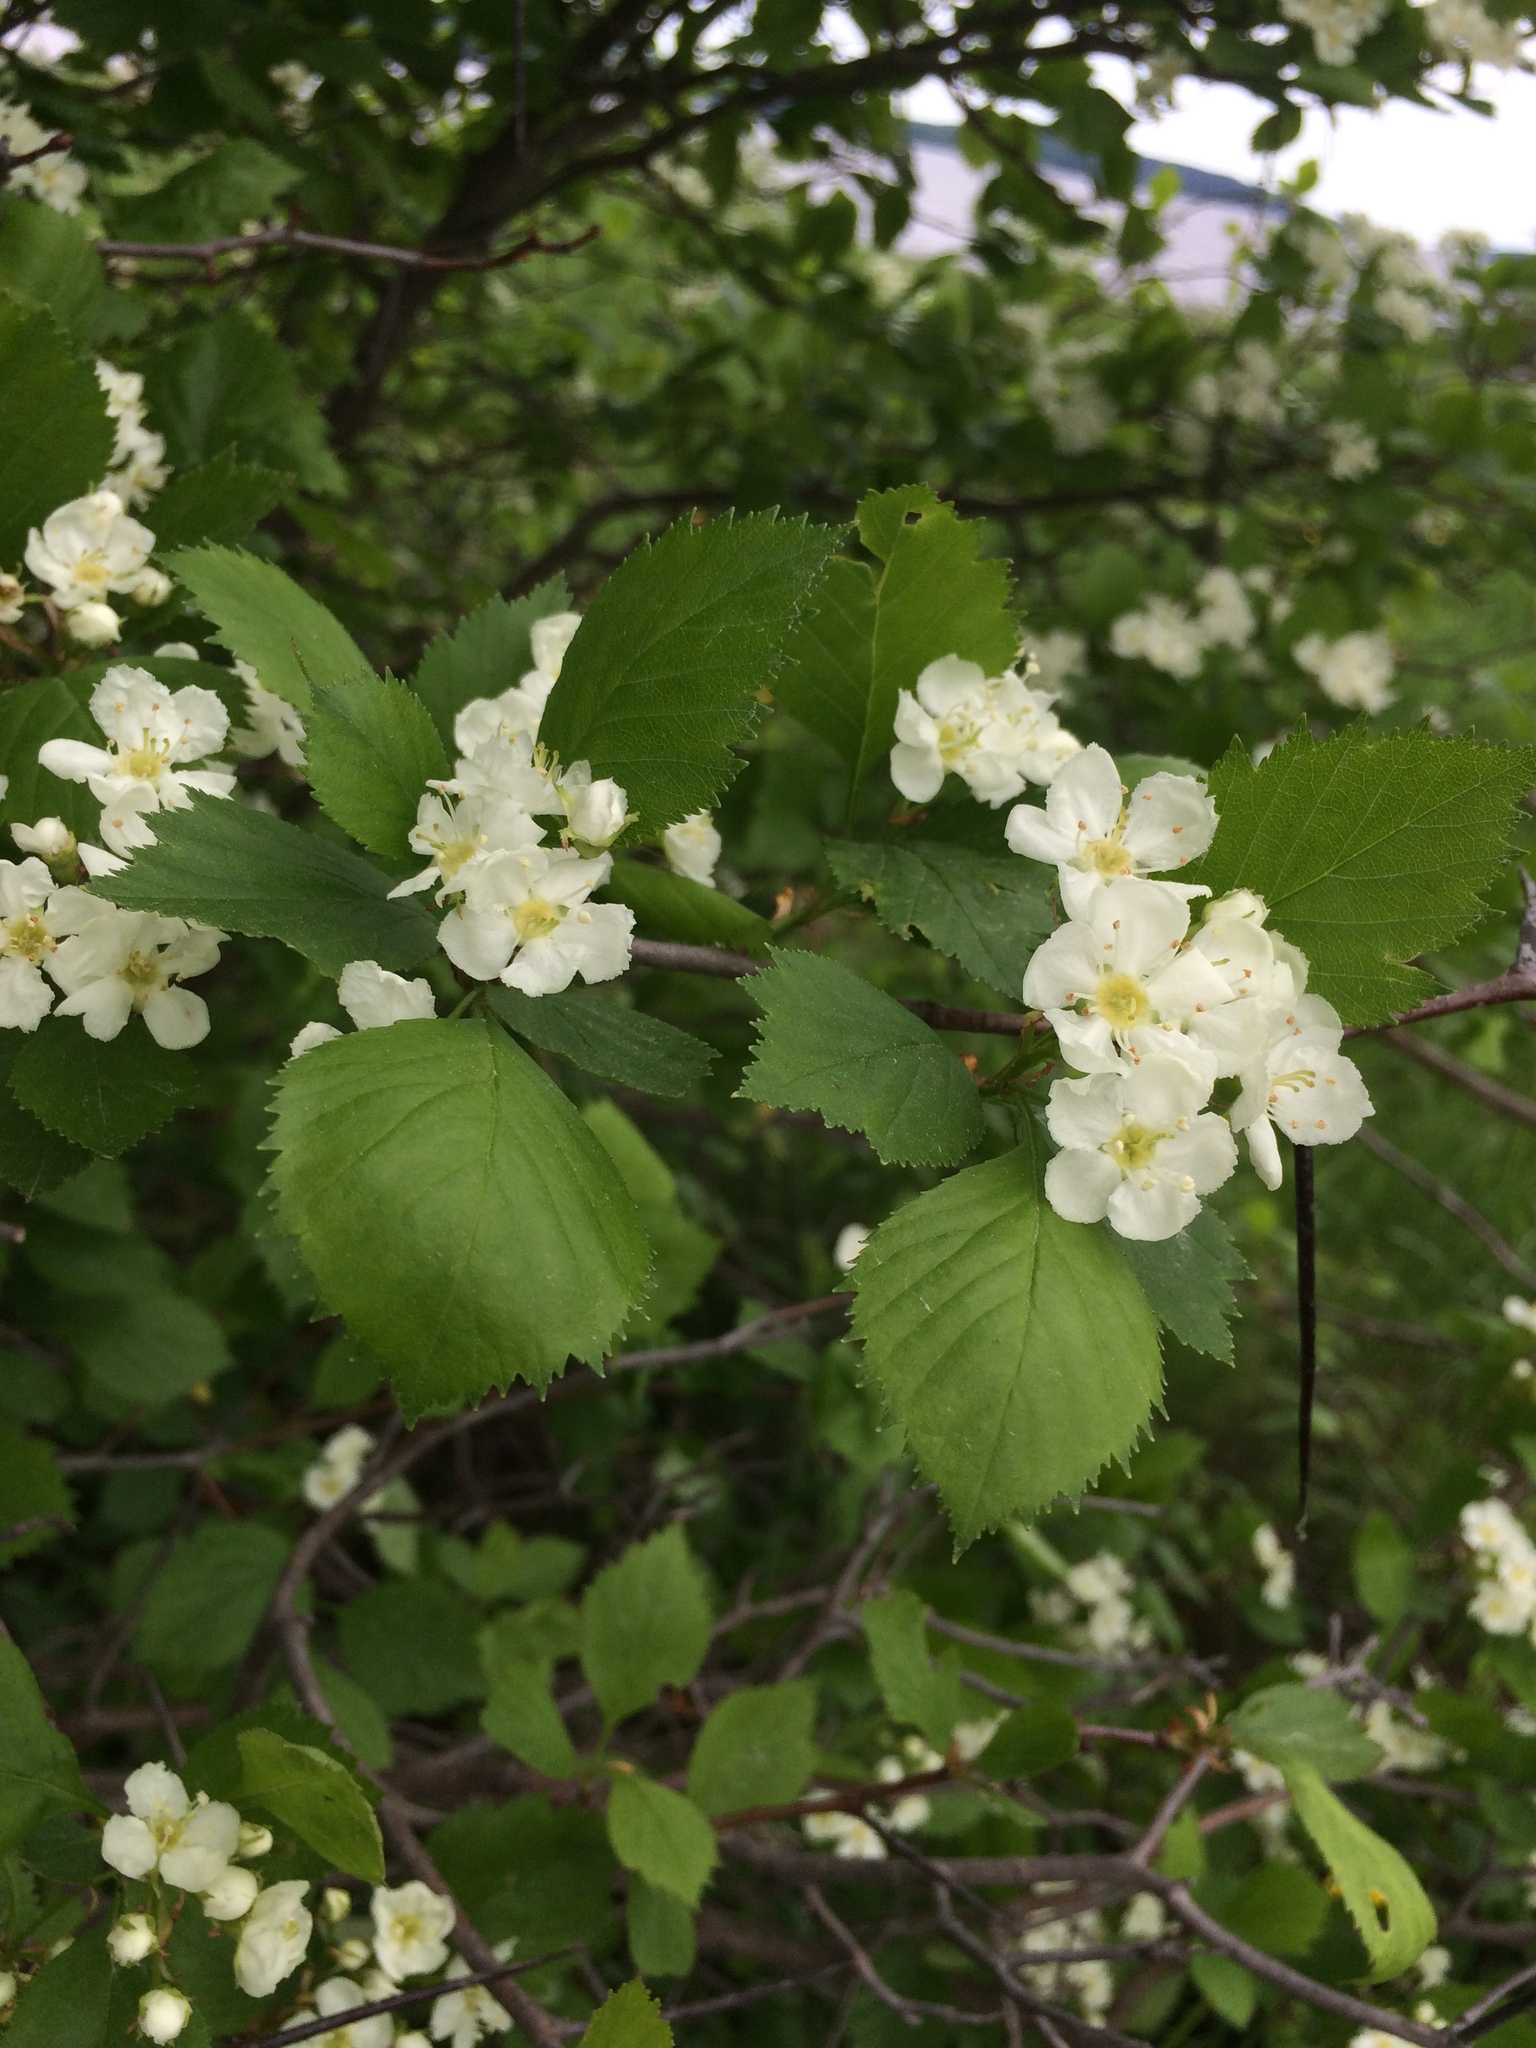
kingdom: Plantae
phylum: Tracheophyta
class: Magnoliopsida
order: Rosales
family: Rosaceae
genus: Crataegus
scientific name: Crataegus chrysocarpa
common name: Fire-berry hawthorn
